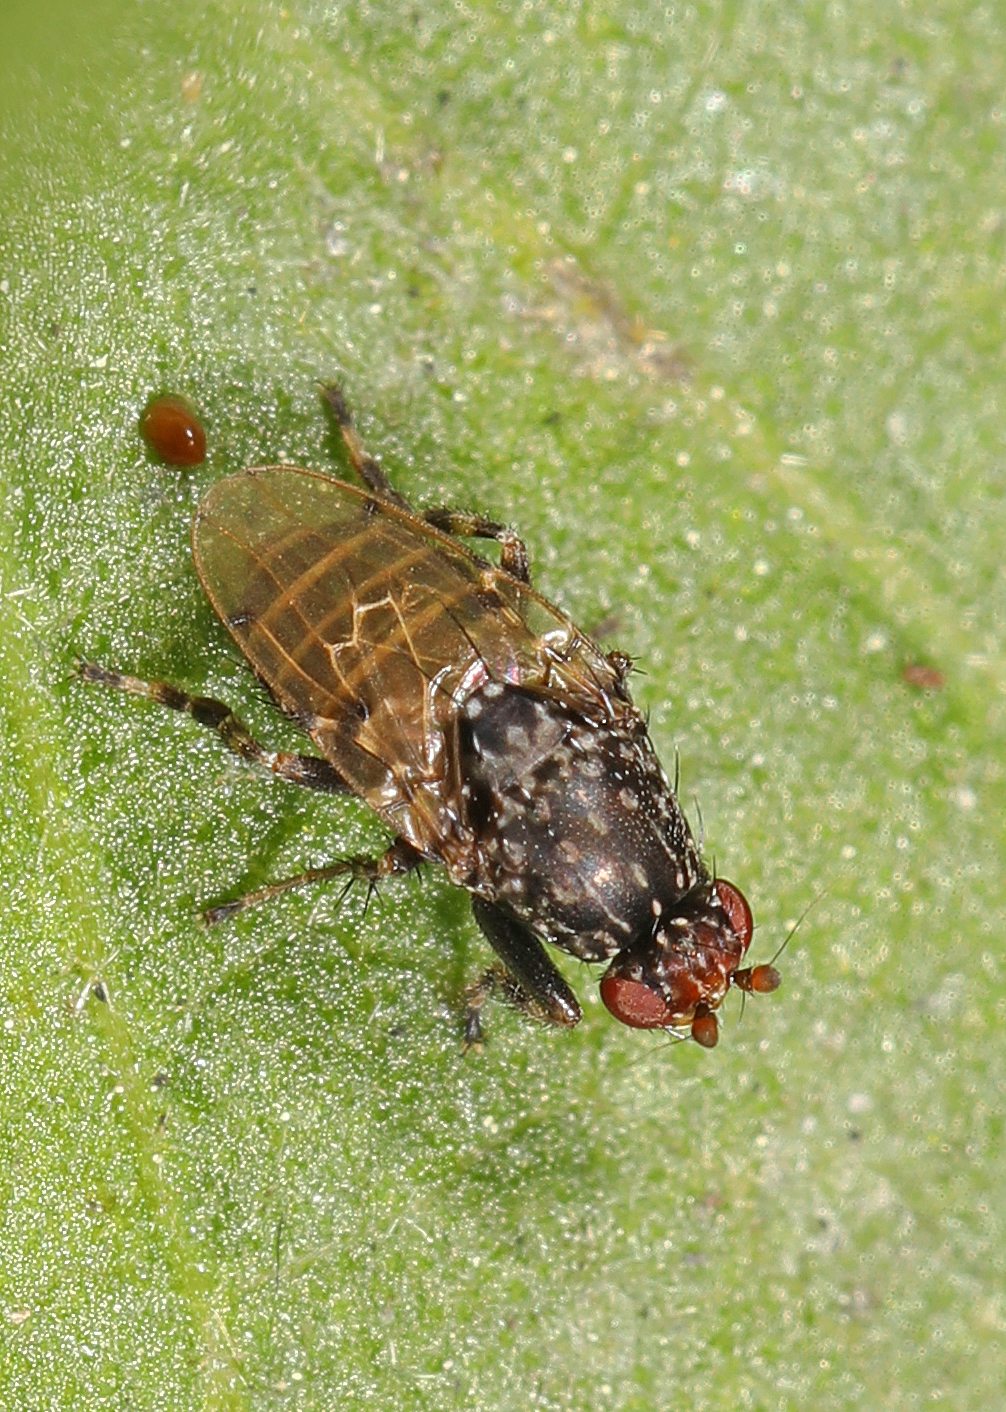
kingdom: Animalia
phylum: Arthropoda
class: Insecta
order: Diptera
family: Sphaeroceridae
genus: Poecilosomella
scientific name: Poecilosomella angulata
